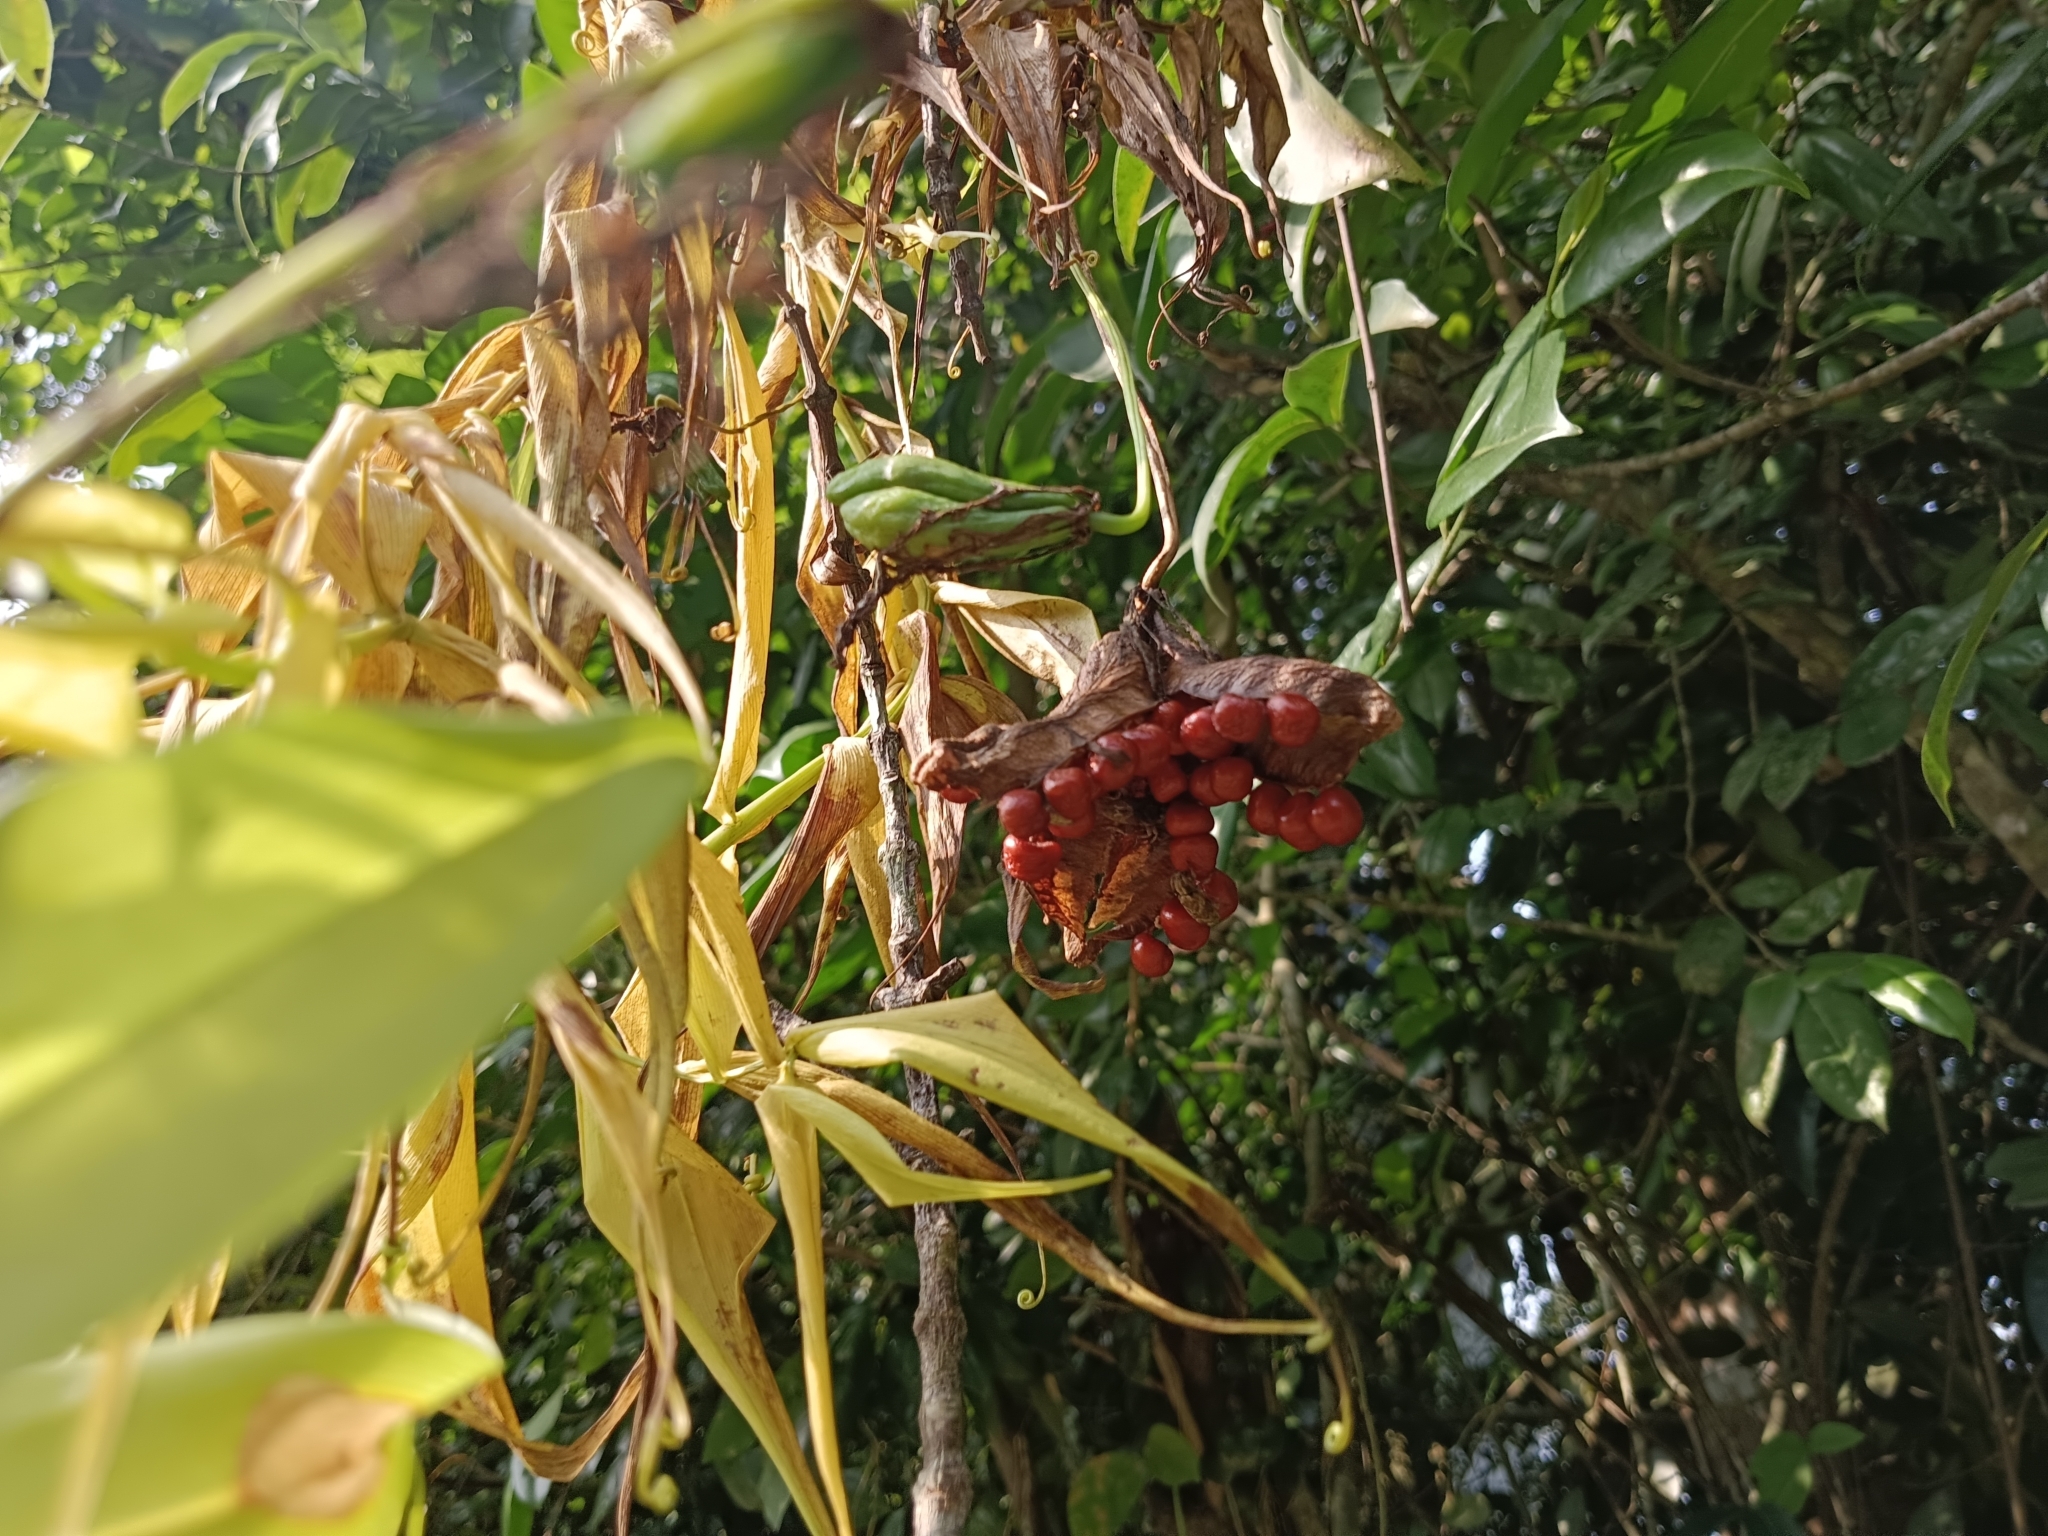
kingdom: Plantae
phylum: Tracheophyta
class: Liliopsida
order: Liliales
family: Colchicaceae
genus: Gloriosa
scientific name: Gloriosa superba
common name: Flame lily
